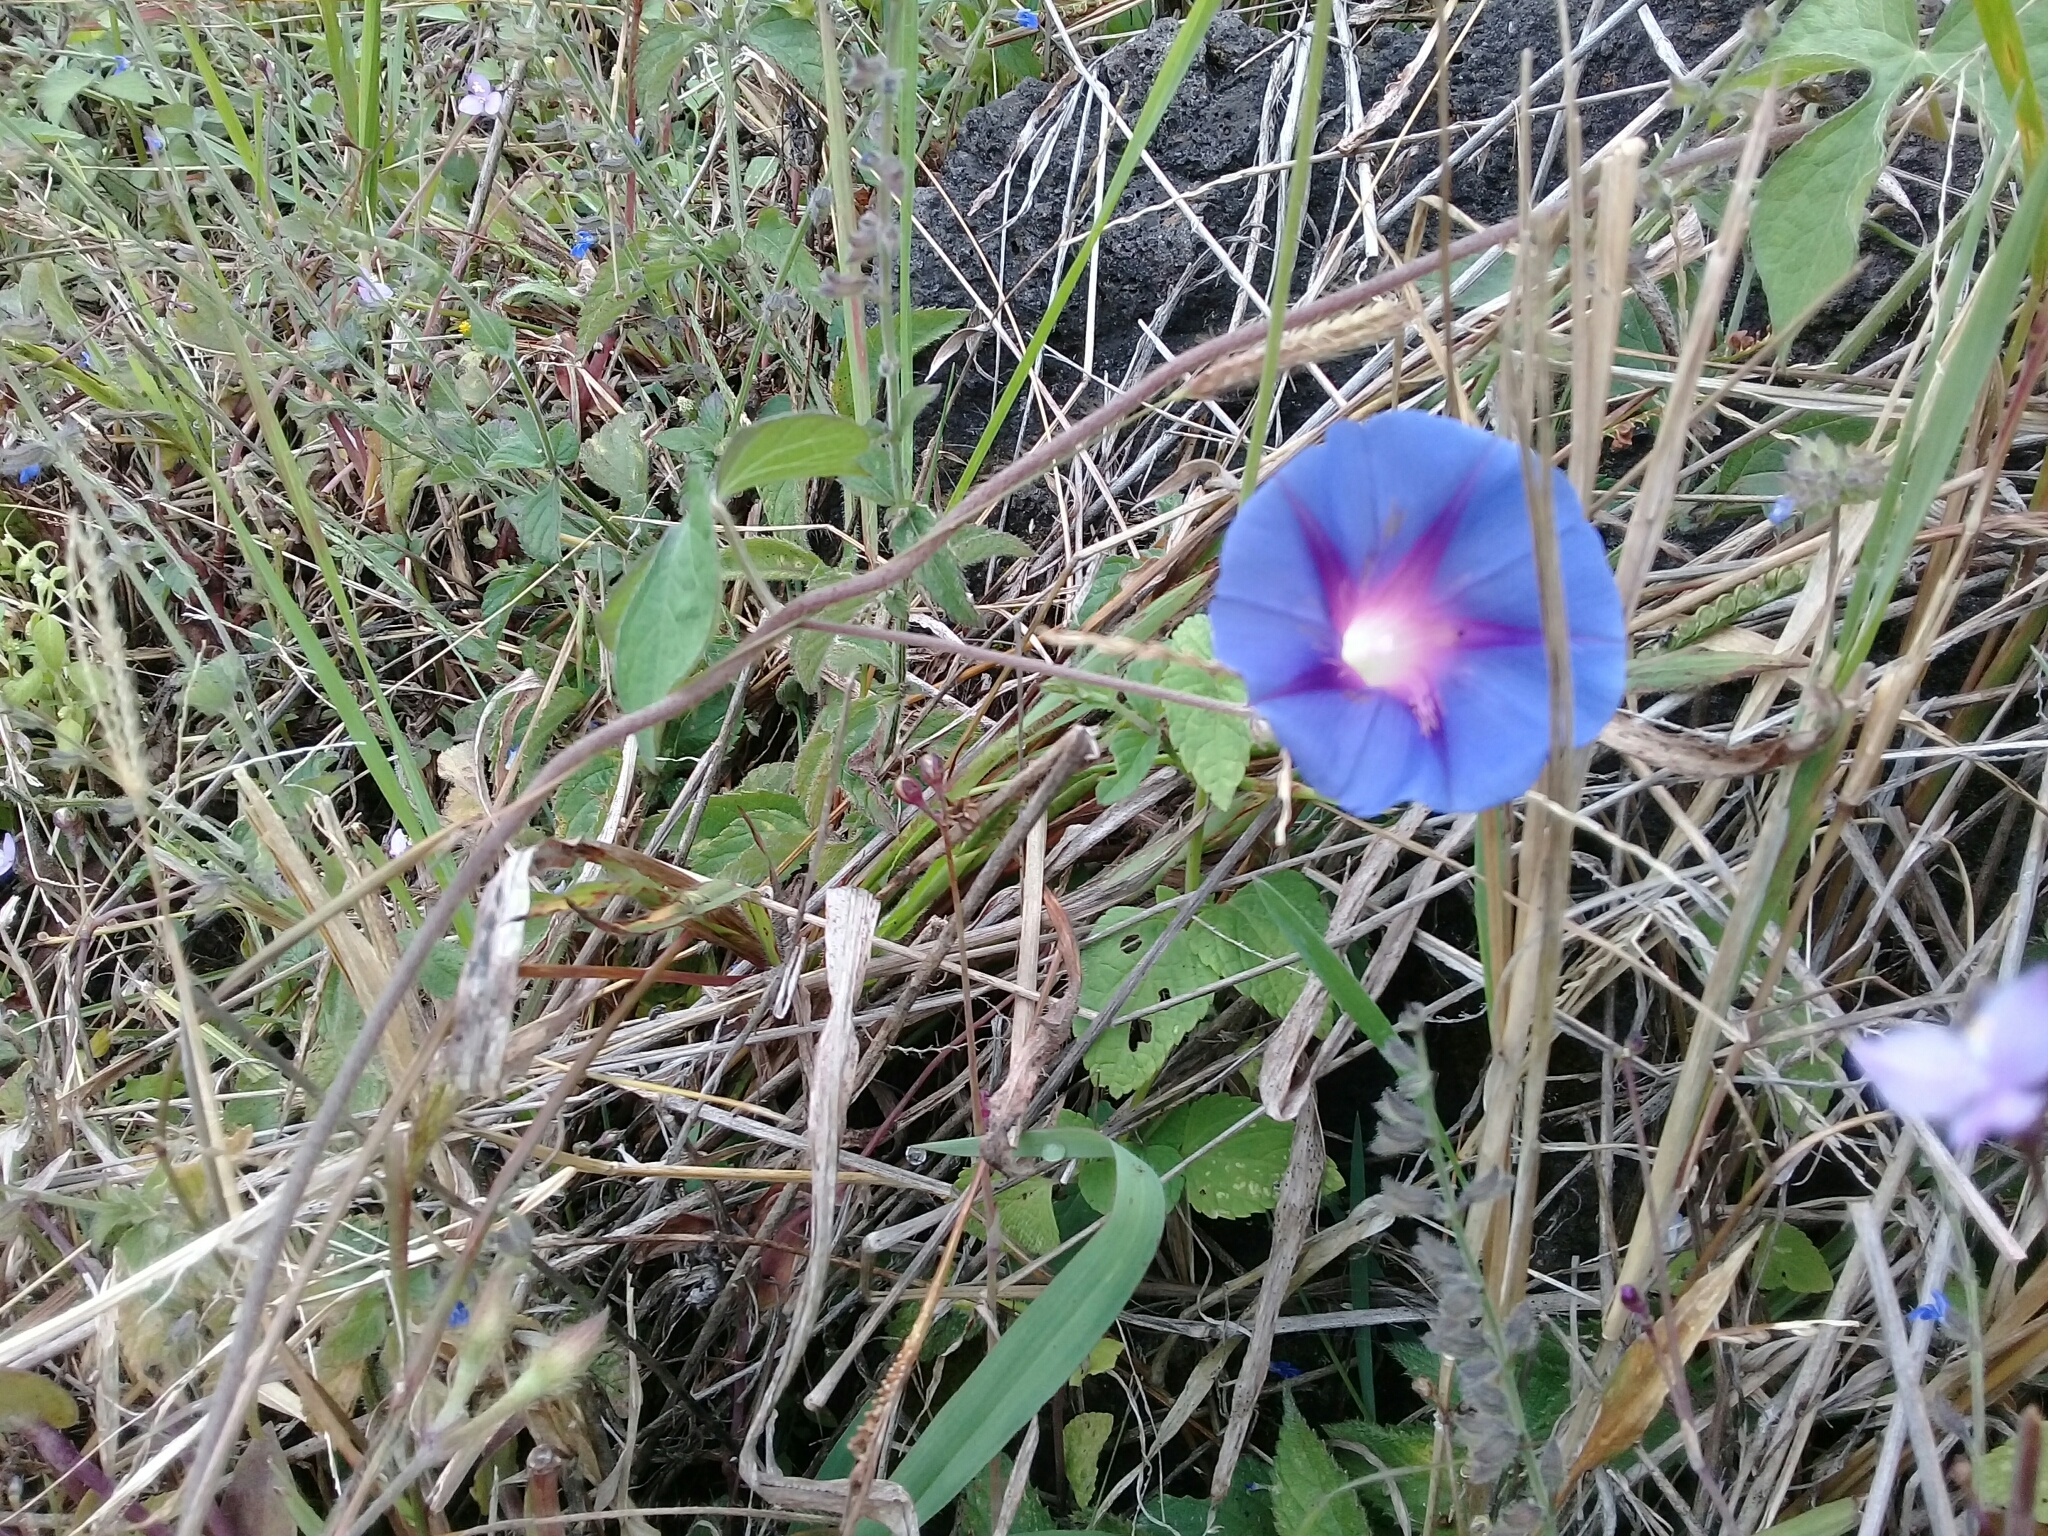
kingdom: Plantae
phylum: Tracheophyta
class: Magnoliopsida
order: Solanales
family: Convolvulaceae
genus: Ipomoea
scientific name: Ipomoea purpurea
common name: Common morning-glory
